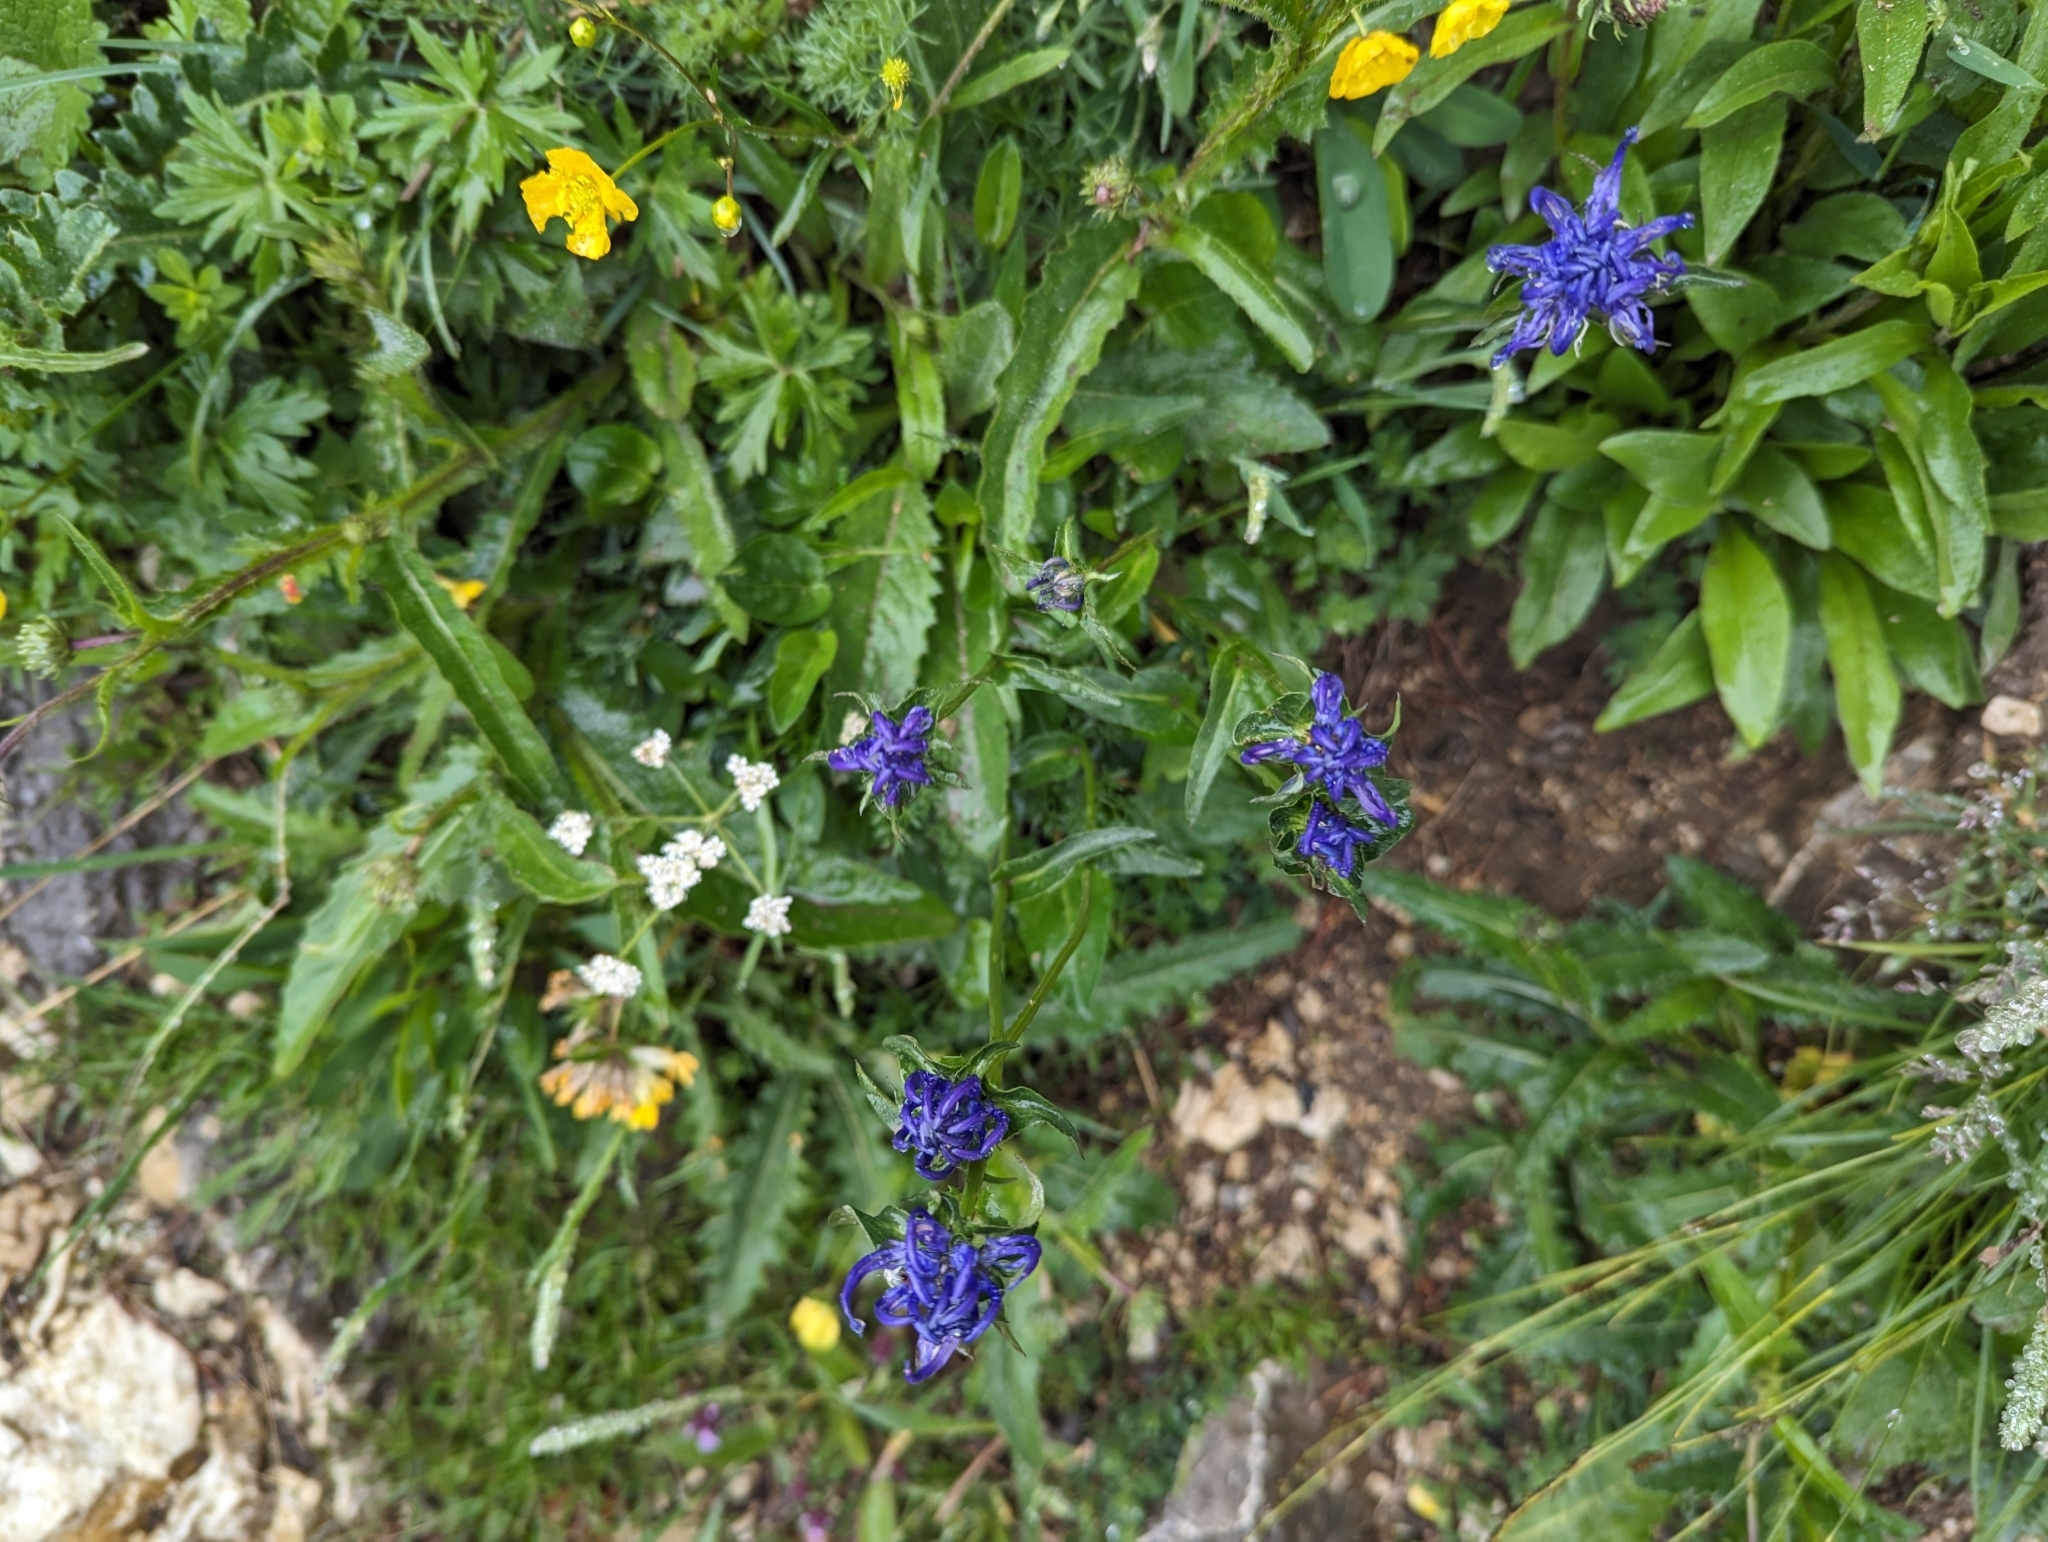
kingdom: Plantae
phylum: Tracheophyta
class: Magnoliopsida
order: Asterales
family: Campanulaceae
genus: Phyteuma
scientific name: Phyteuma orbiculare
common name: Round-headed rampion
